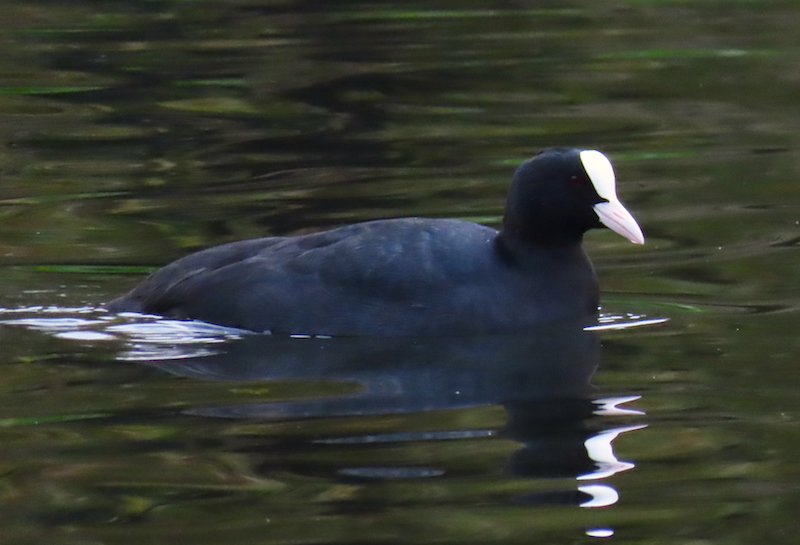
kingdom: Animalia
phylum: Chordata
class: Aves
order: Gruiformes
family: Rallidae
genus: Fulica
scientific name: Fulica atra
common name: Eurasian coot
